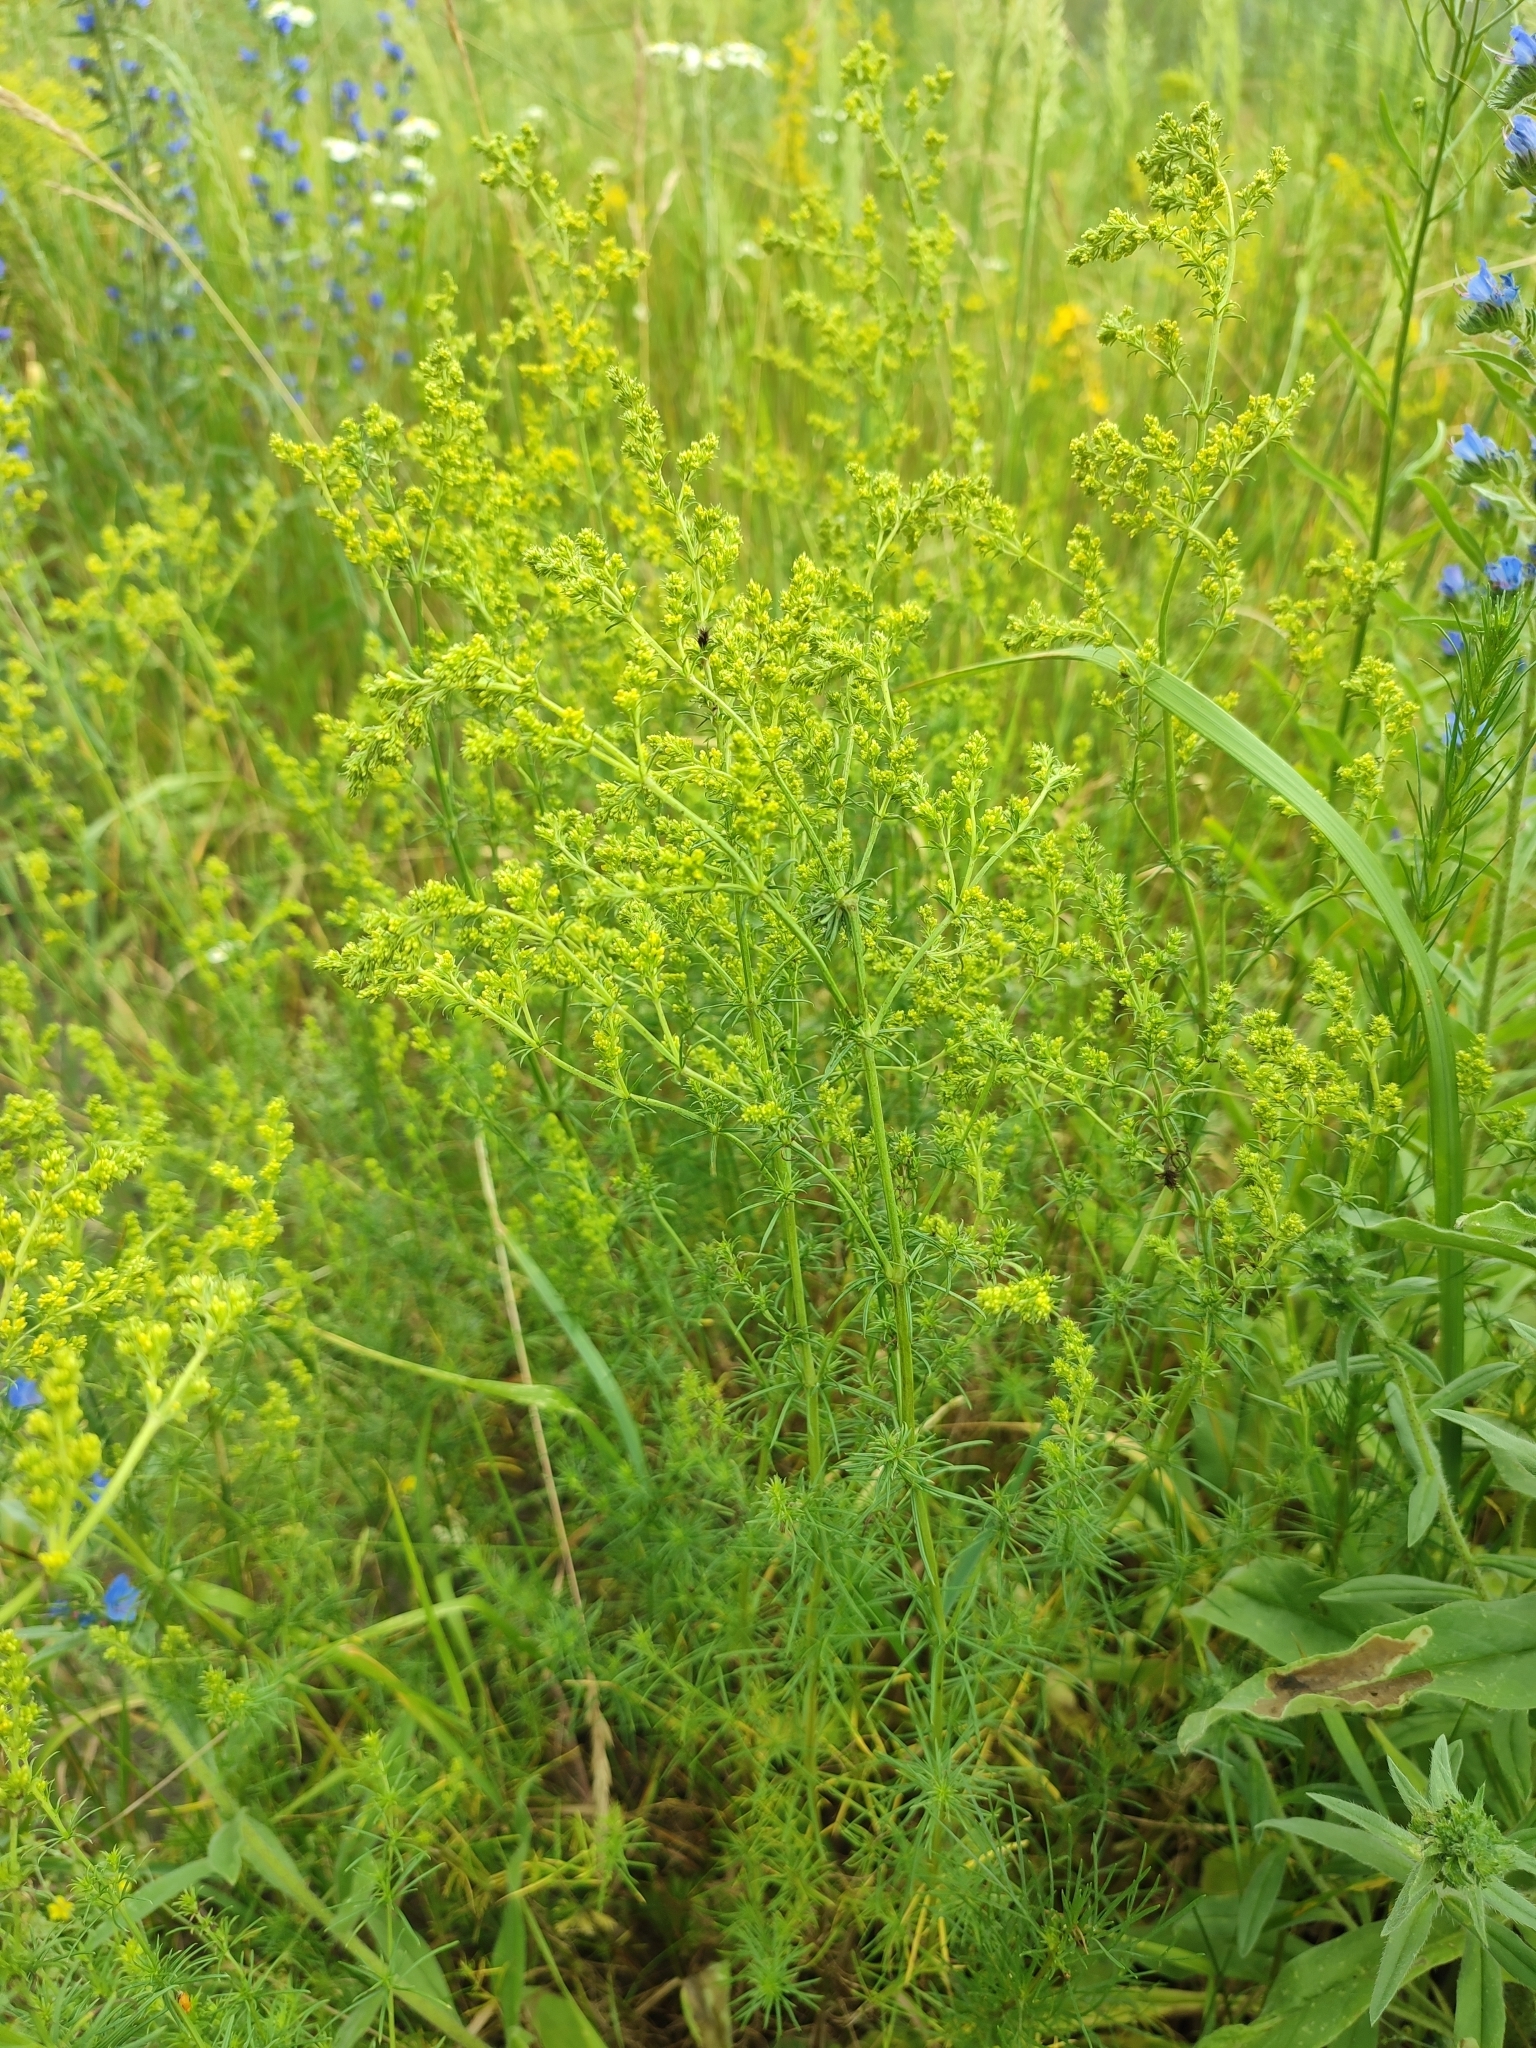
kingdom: Plantae
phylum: Tracheophyta
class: Magnoliopsida
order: Gentianales
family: Rubiaceae
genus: Galium
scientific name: Galium verum
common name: Lady's bedstraw
